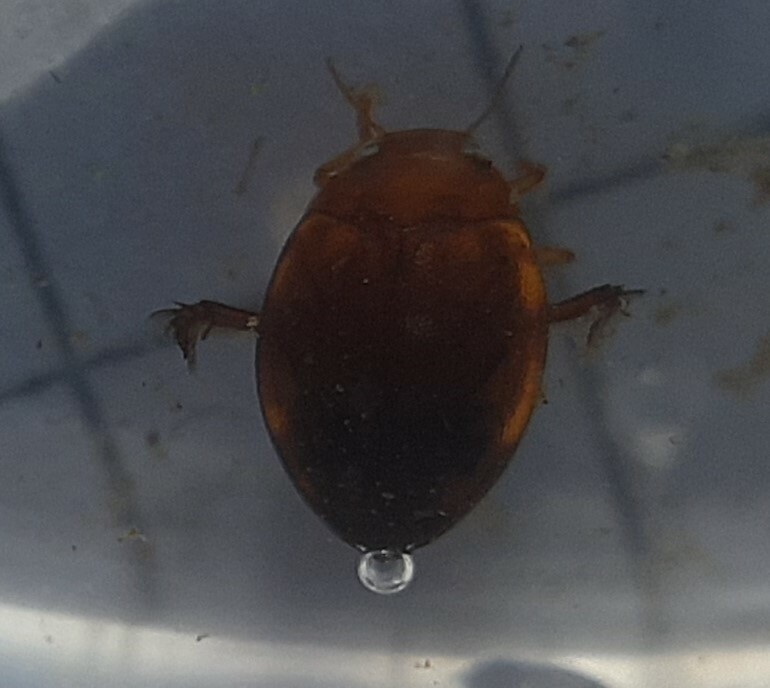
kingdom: Animalia
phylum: Arthropoda
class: Insecta
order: Coleoptera
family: Dytiscidae
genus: Hyphydrus
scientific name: Hyphydrus ovatus
